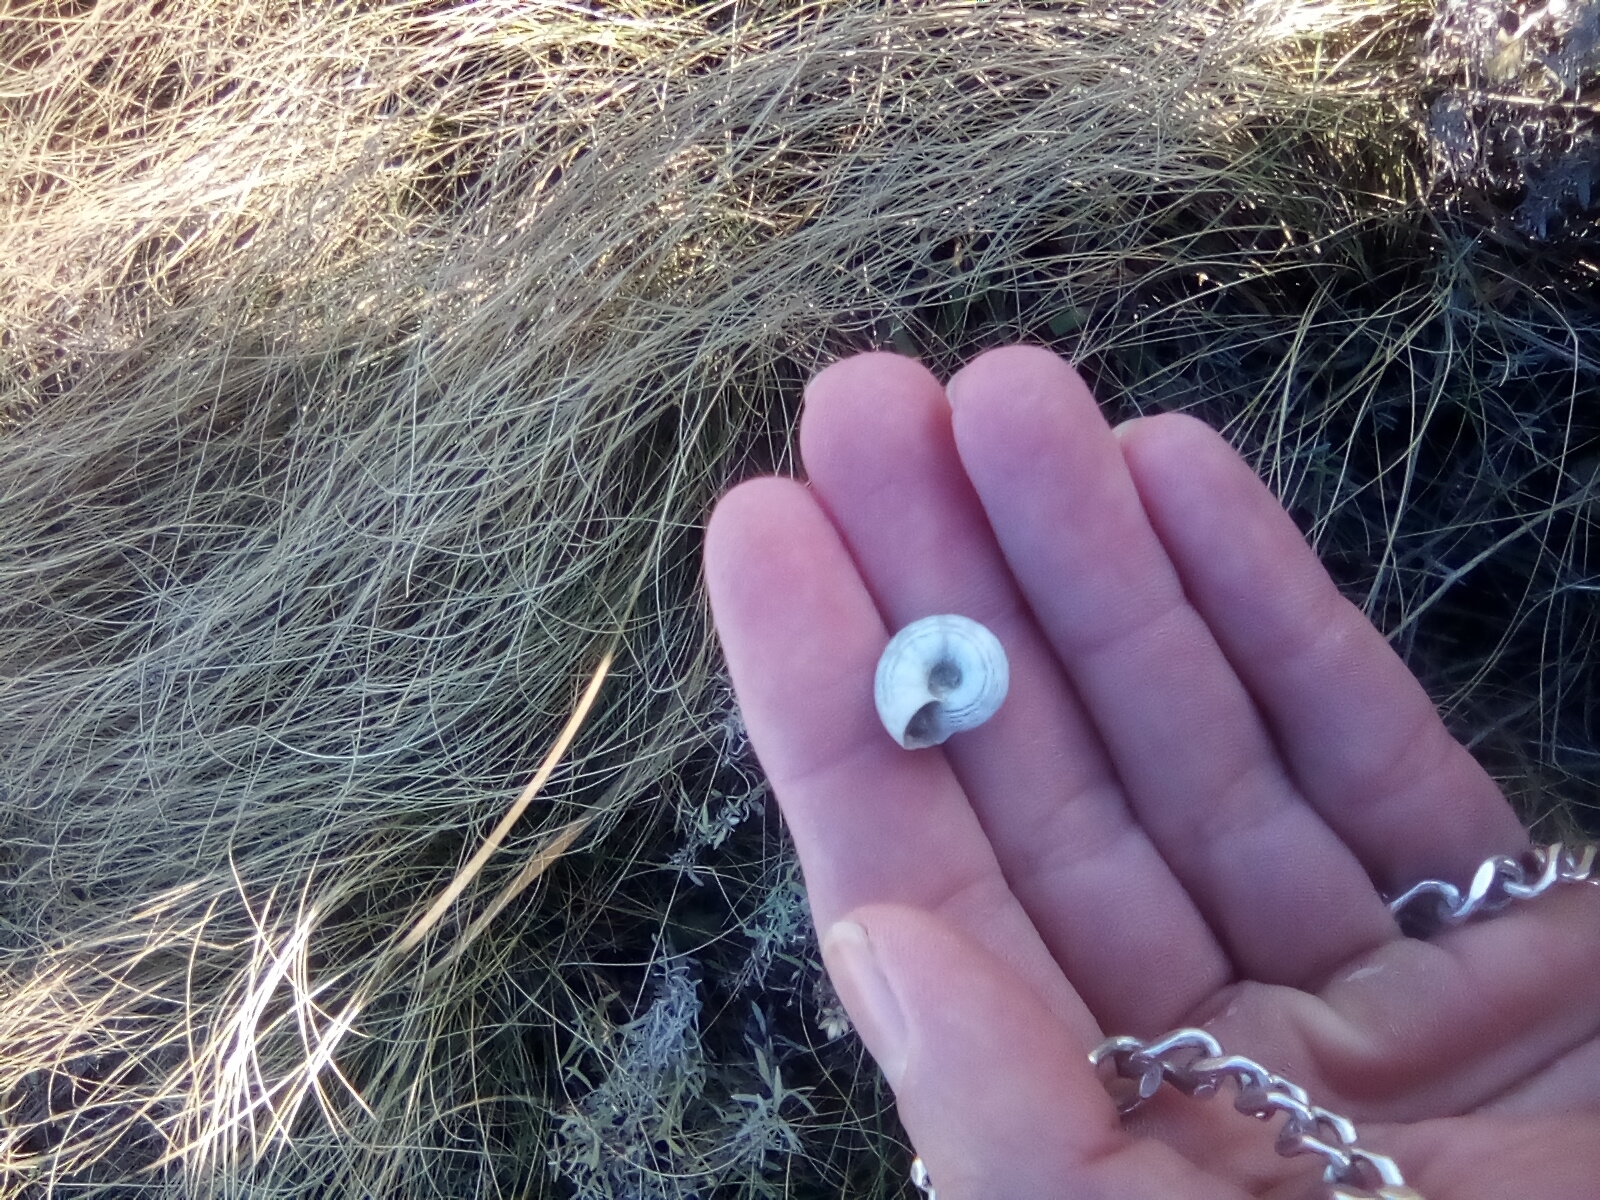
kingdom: Animalia
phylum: Mollusca
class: Gastropoda
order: Stylommatophora
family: Geomitridae
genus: Xeropicta
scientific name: Xeropicta derbentina
